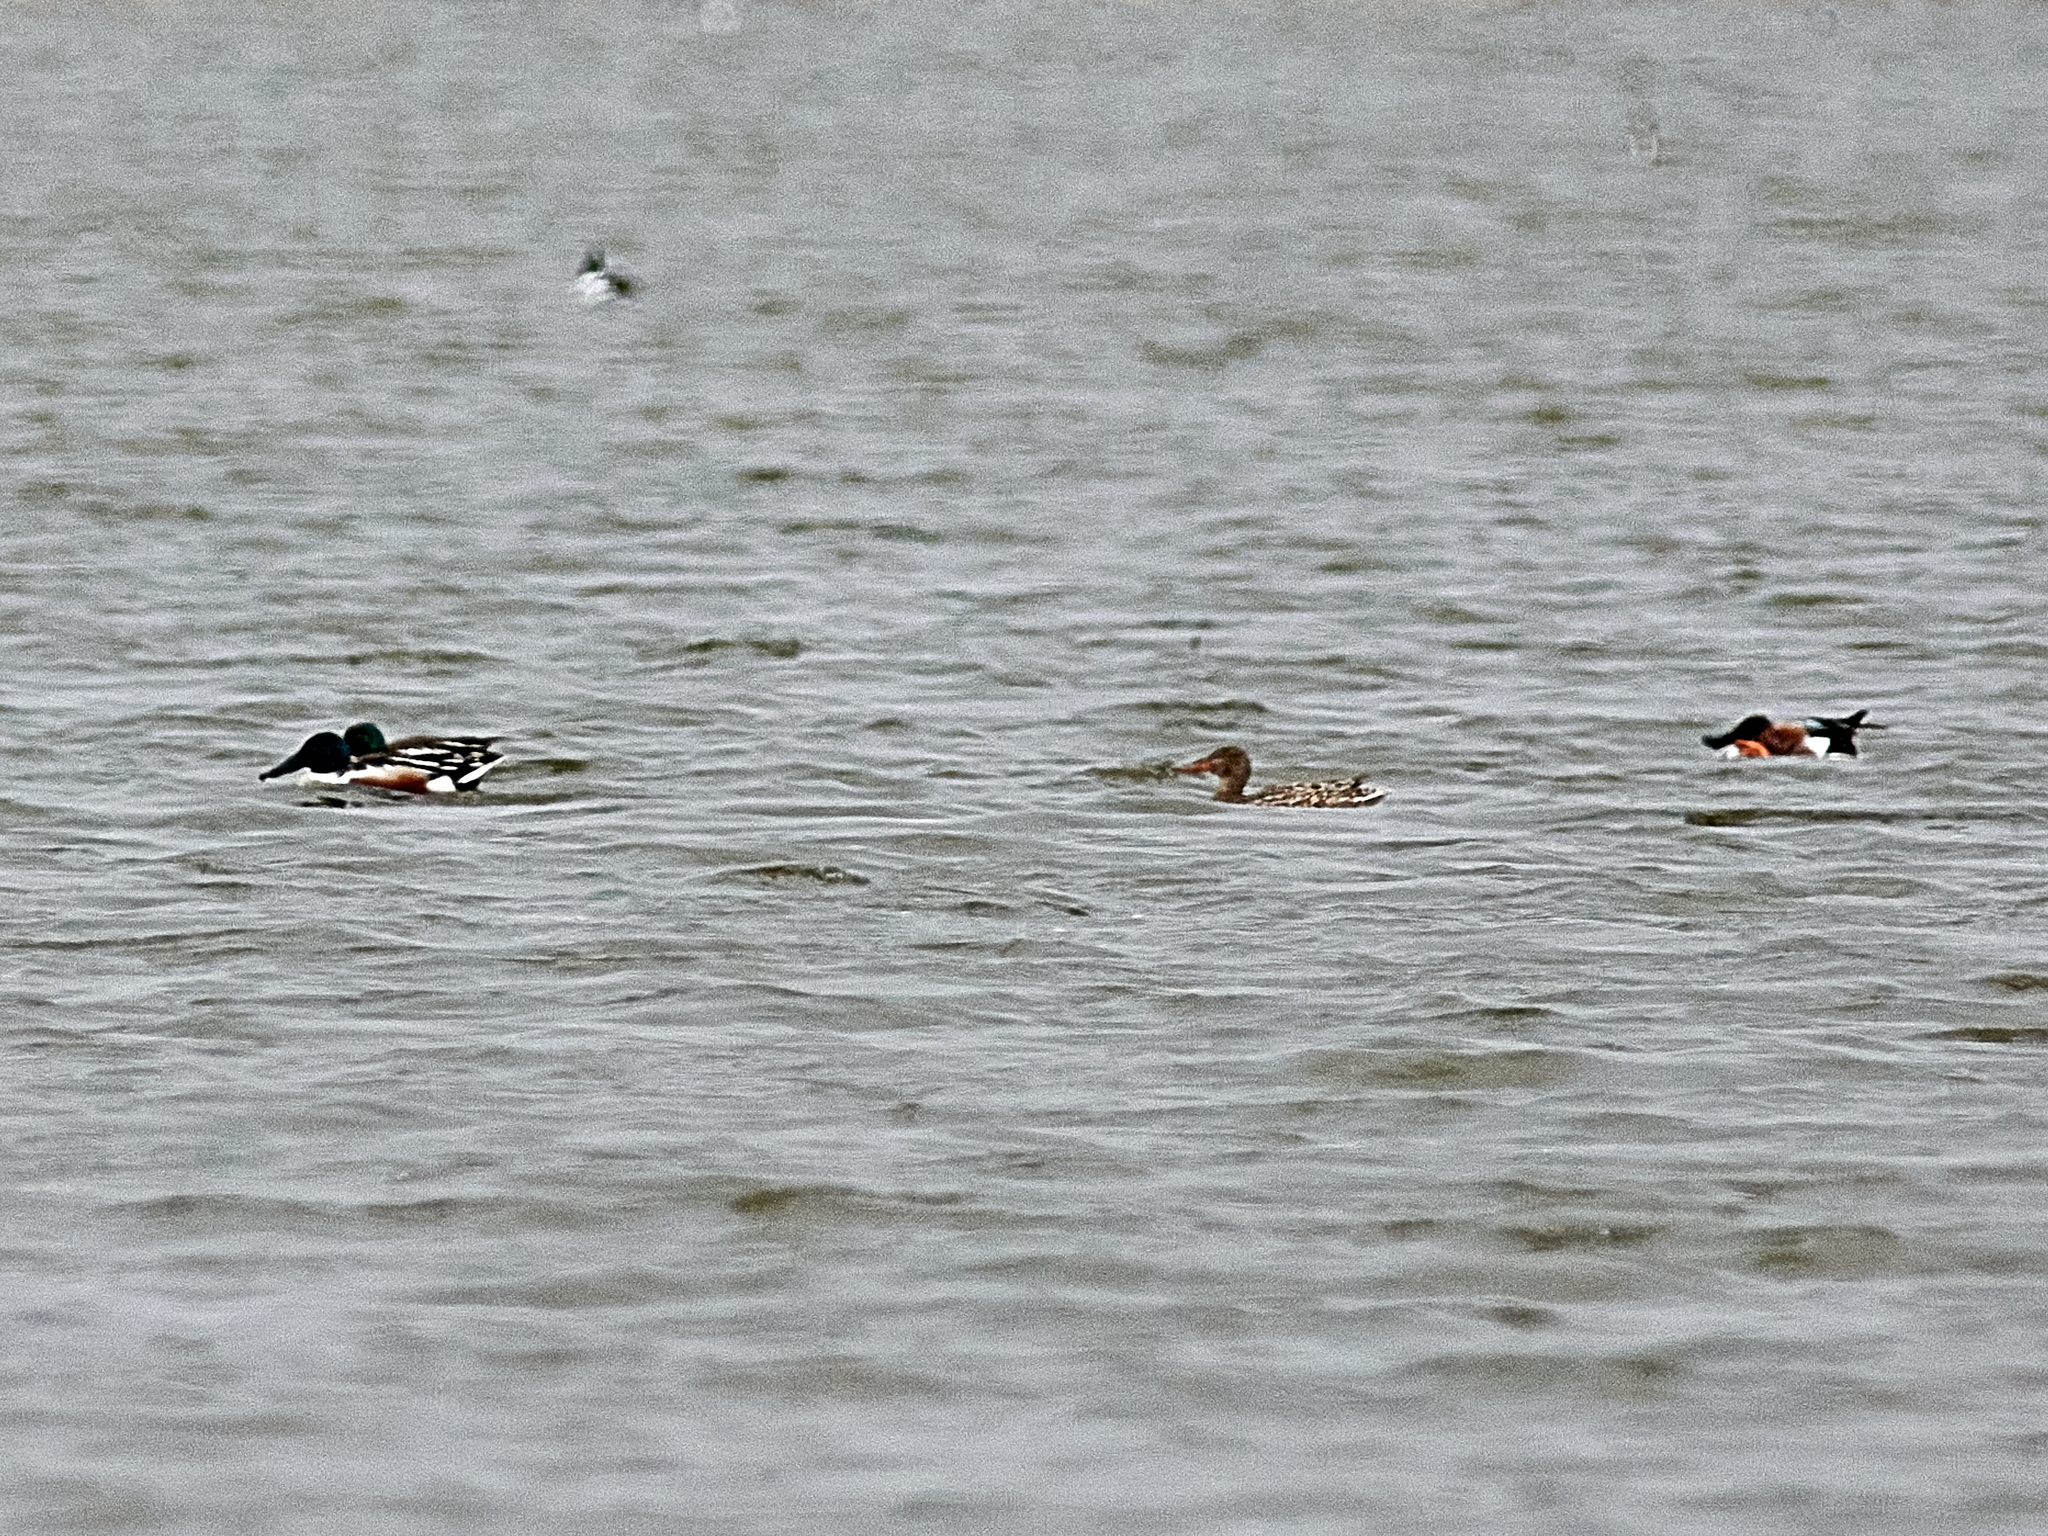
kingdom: Animalia
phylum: Chordata
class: Aves
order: Anseriformes
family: Anatidae
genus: Spatula
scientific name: Spatula clypeata
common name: Northern shoveler
